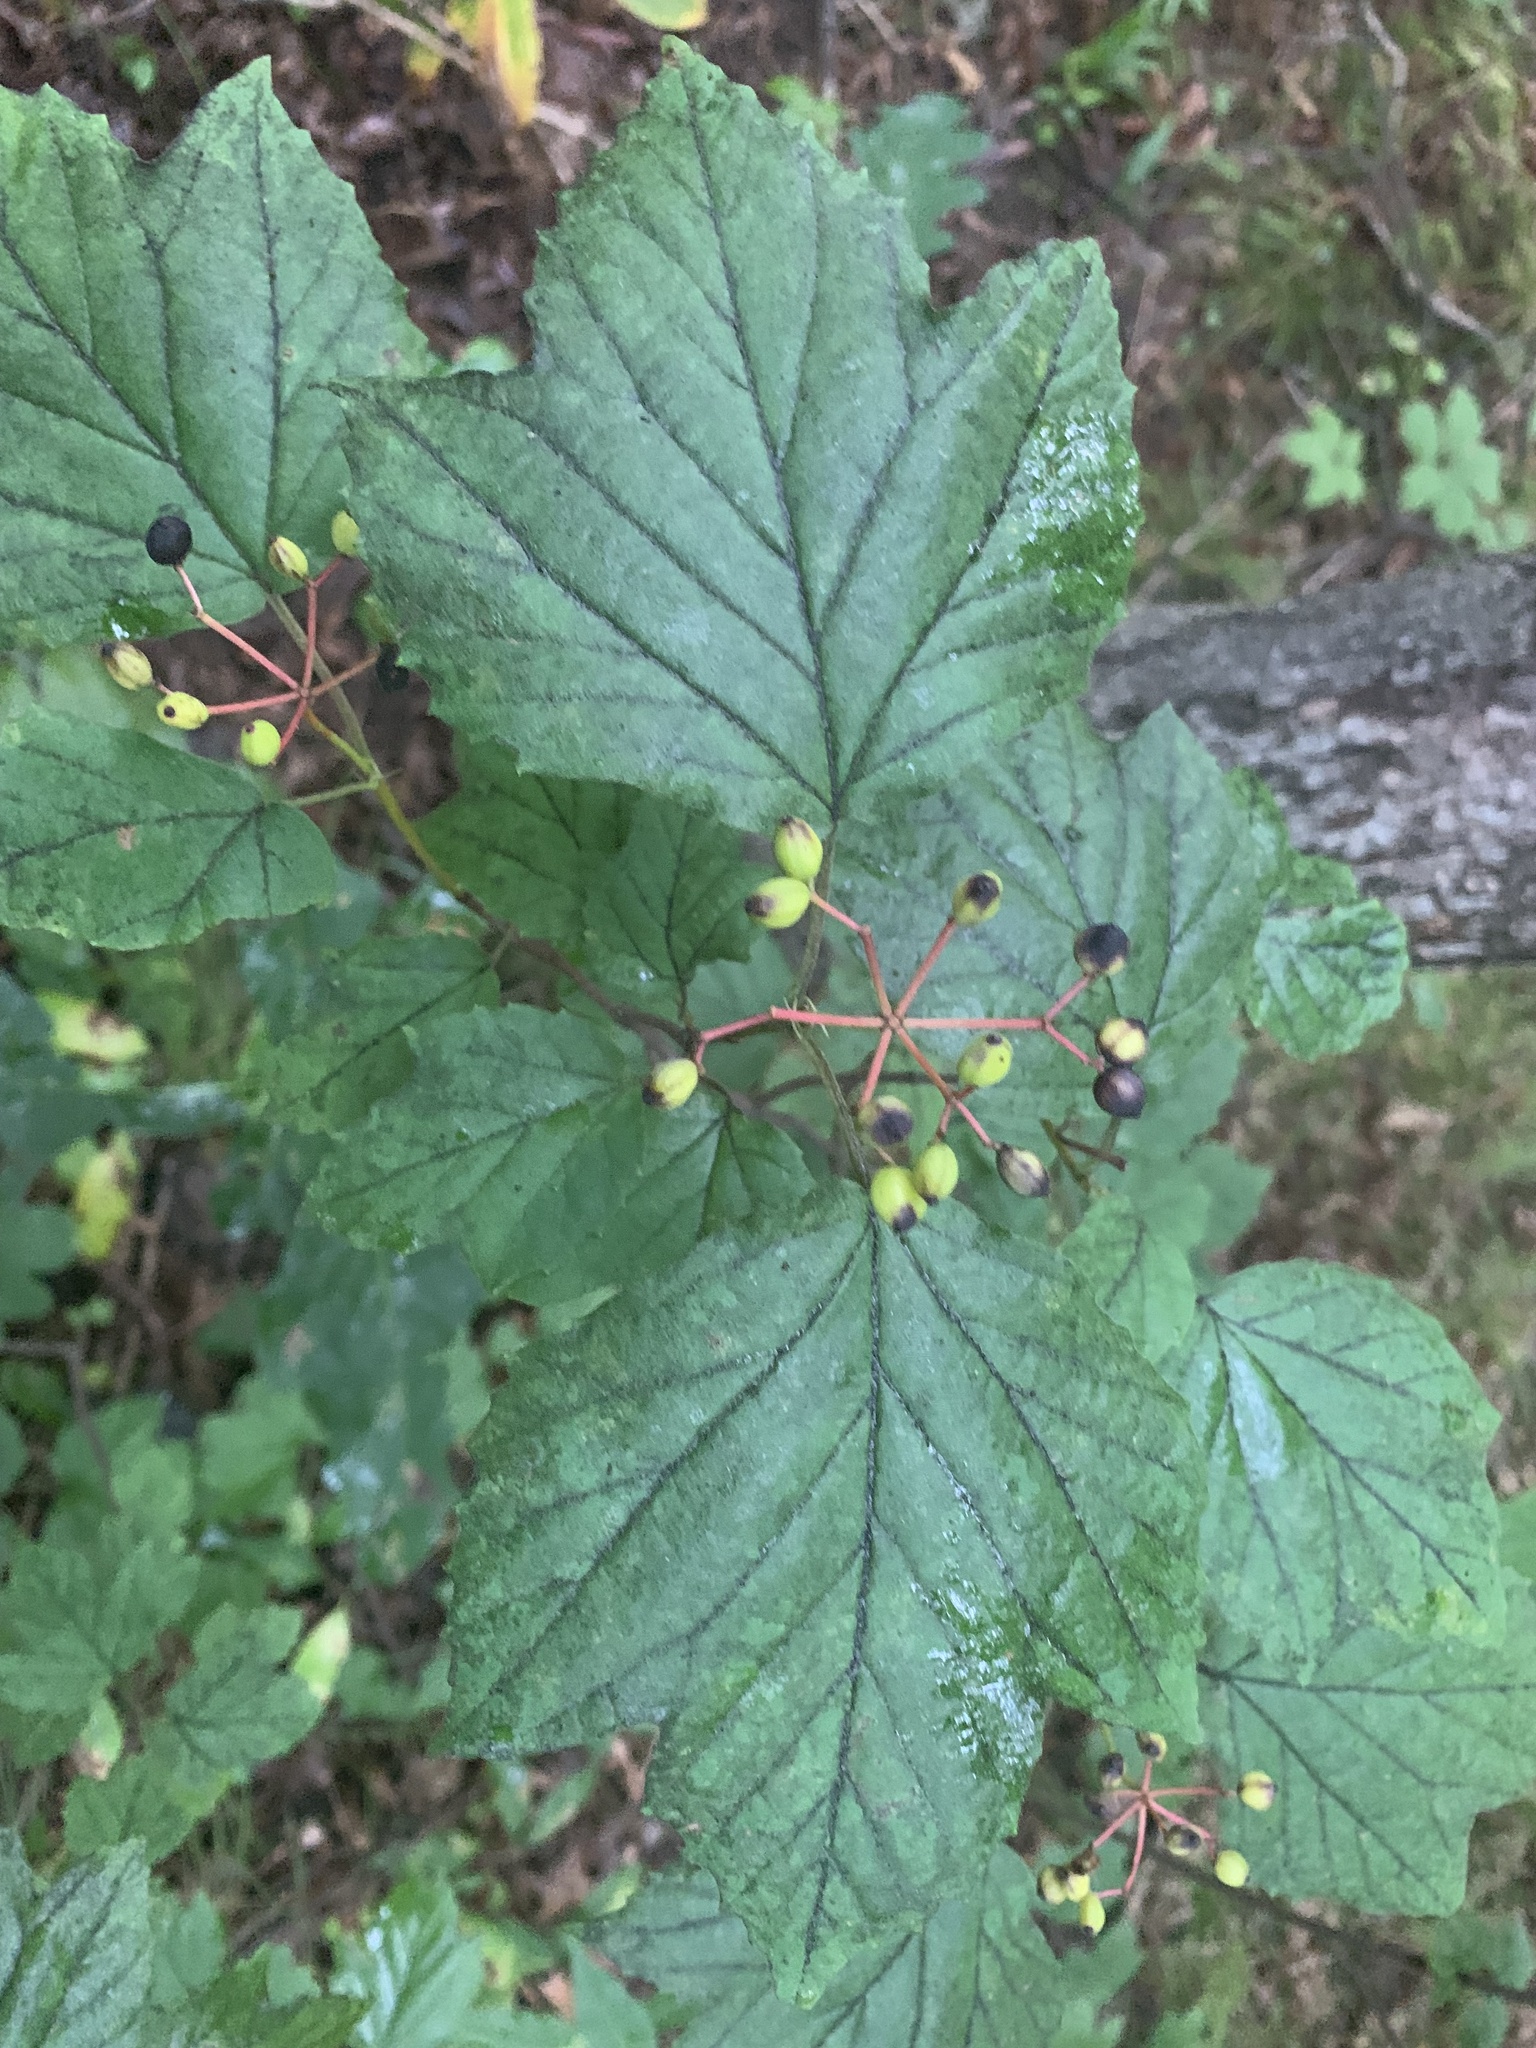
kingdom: Plantae
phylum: Tracheophyta
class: Magnoliopsida
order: Dipsacales
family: Viburnaceae
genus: Viburnum
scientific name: Viburnum acerifolium
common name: Dockmackie
